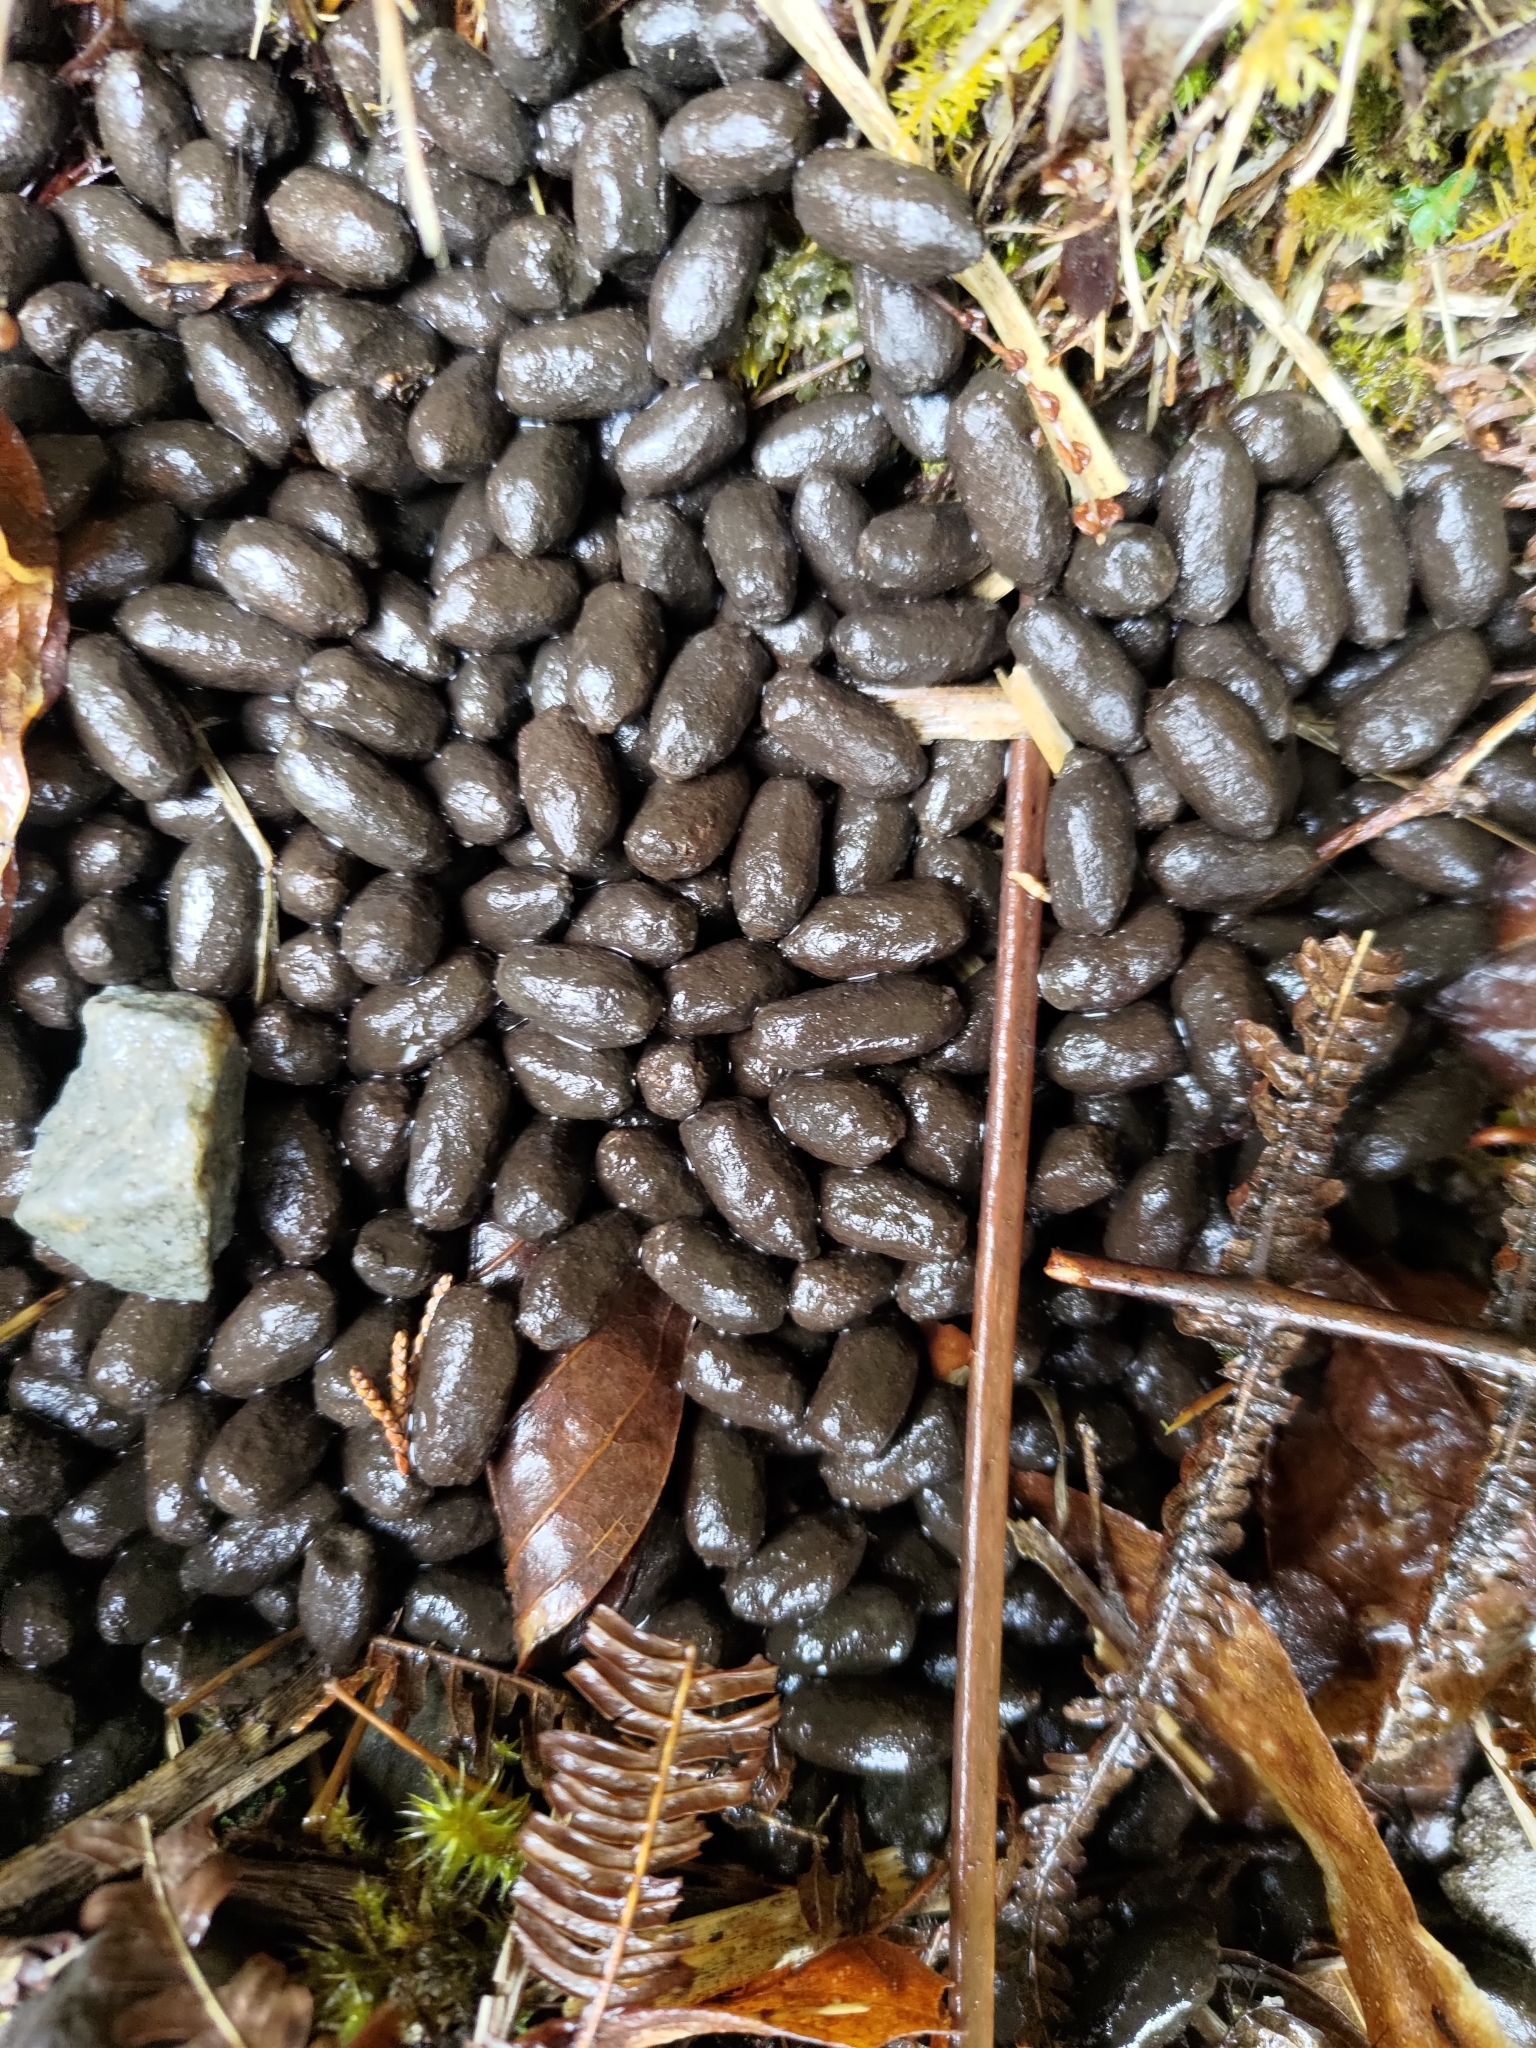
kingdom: Animalia
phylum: Chordata
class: Mammalia
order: Artiodactyla
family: Bovidae
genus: Capricornis
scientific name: Capricornis swinhoei
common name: Formosan serow
